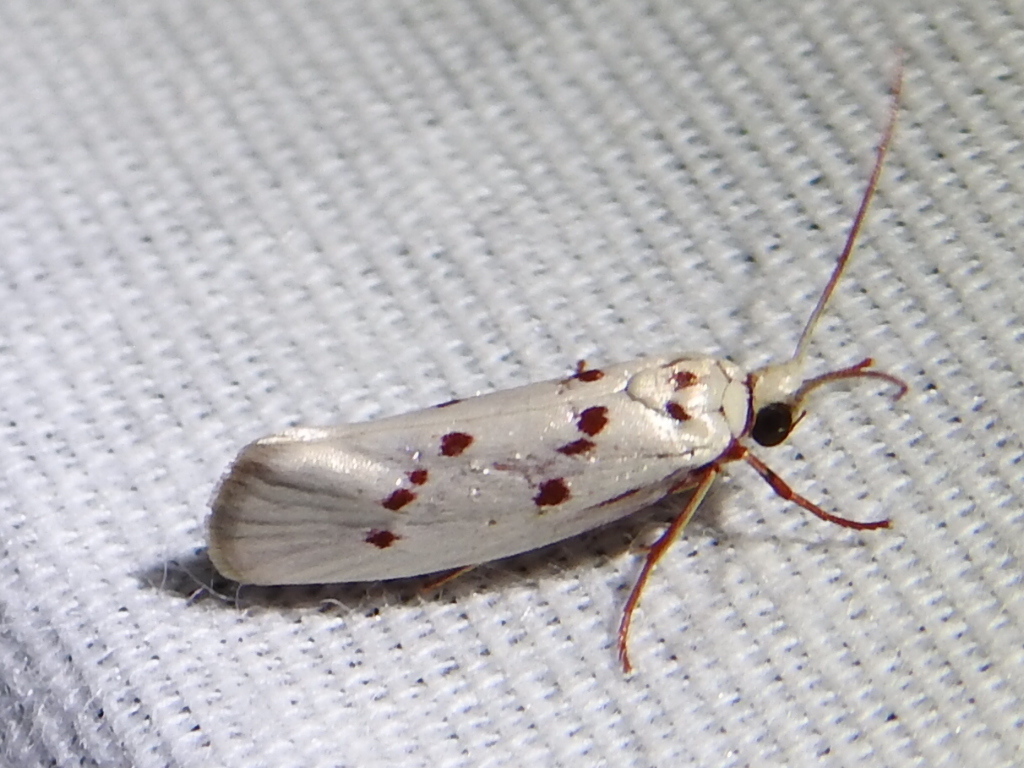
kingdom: Animalia
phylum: Arthropoda
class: Insecta
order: Lepidoptera
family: Lacturidae
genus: Lactura
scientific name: Lactura
